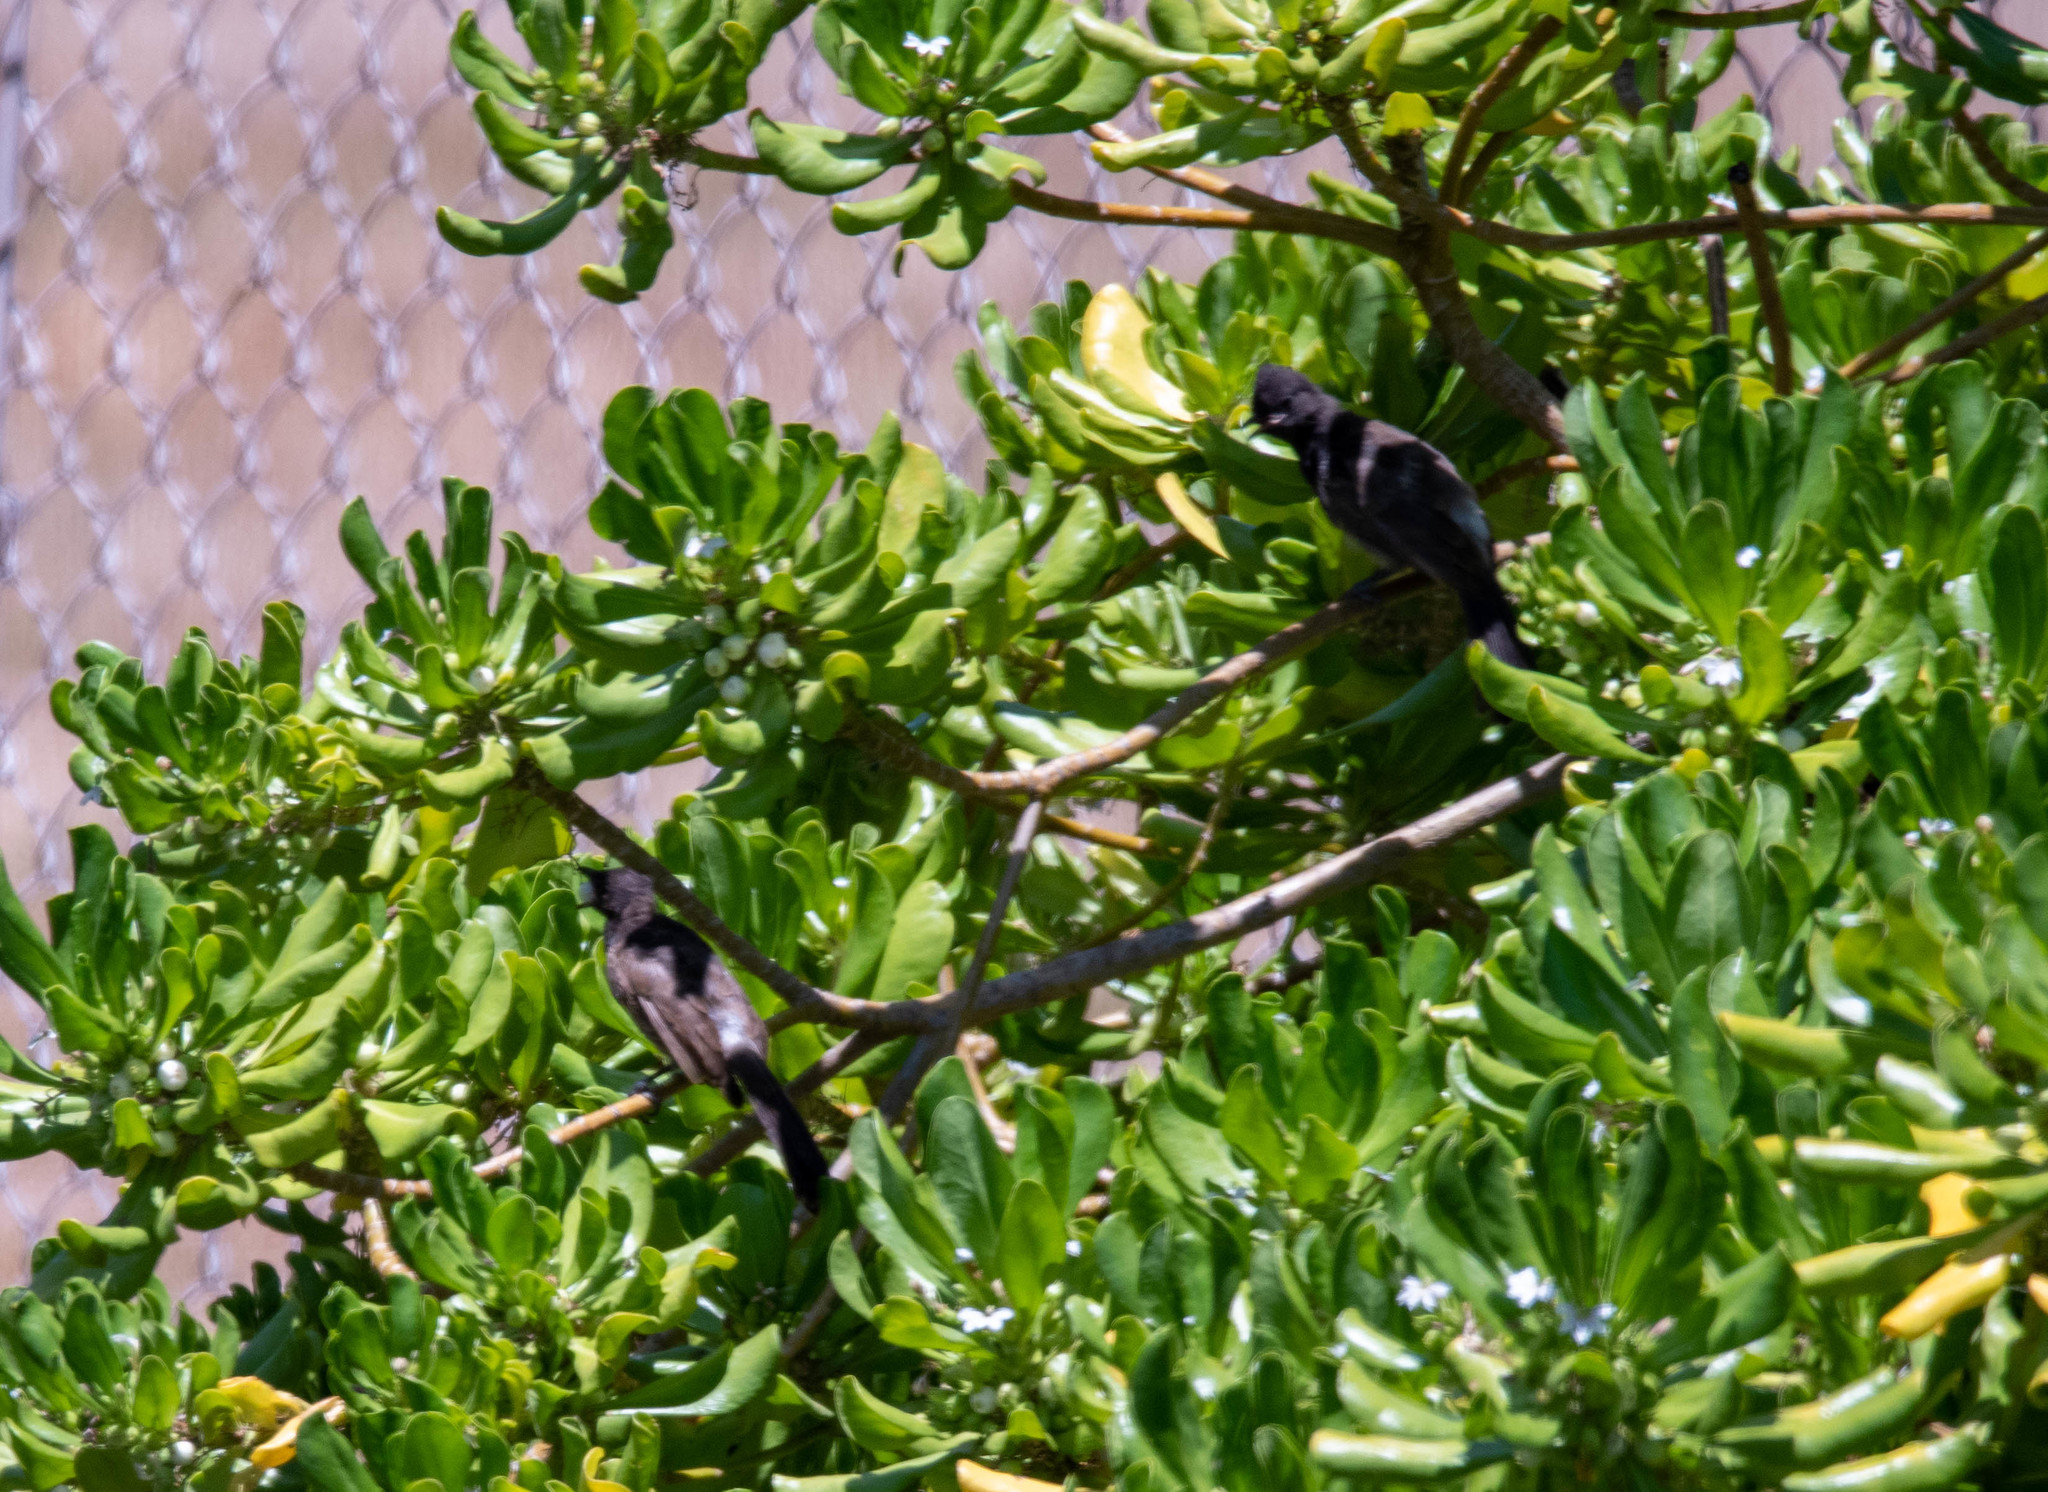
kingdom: Animalia
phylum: Chordata
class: Aves
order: Passeriformes
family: Pycnonotidae
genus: Pycnonotus
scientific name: Pycnonotus cafer
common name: Red-vented bulbul
